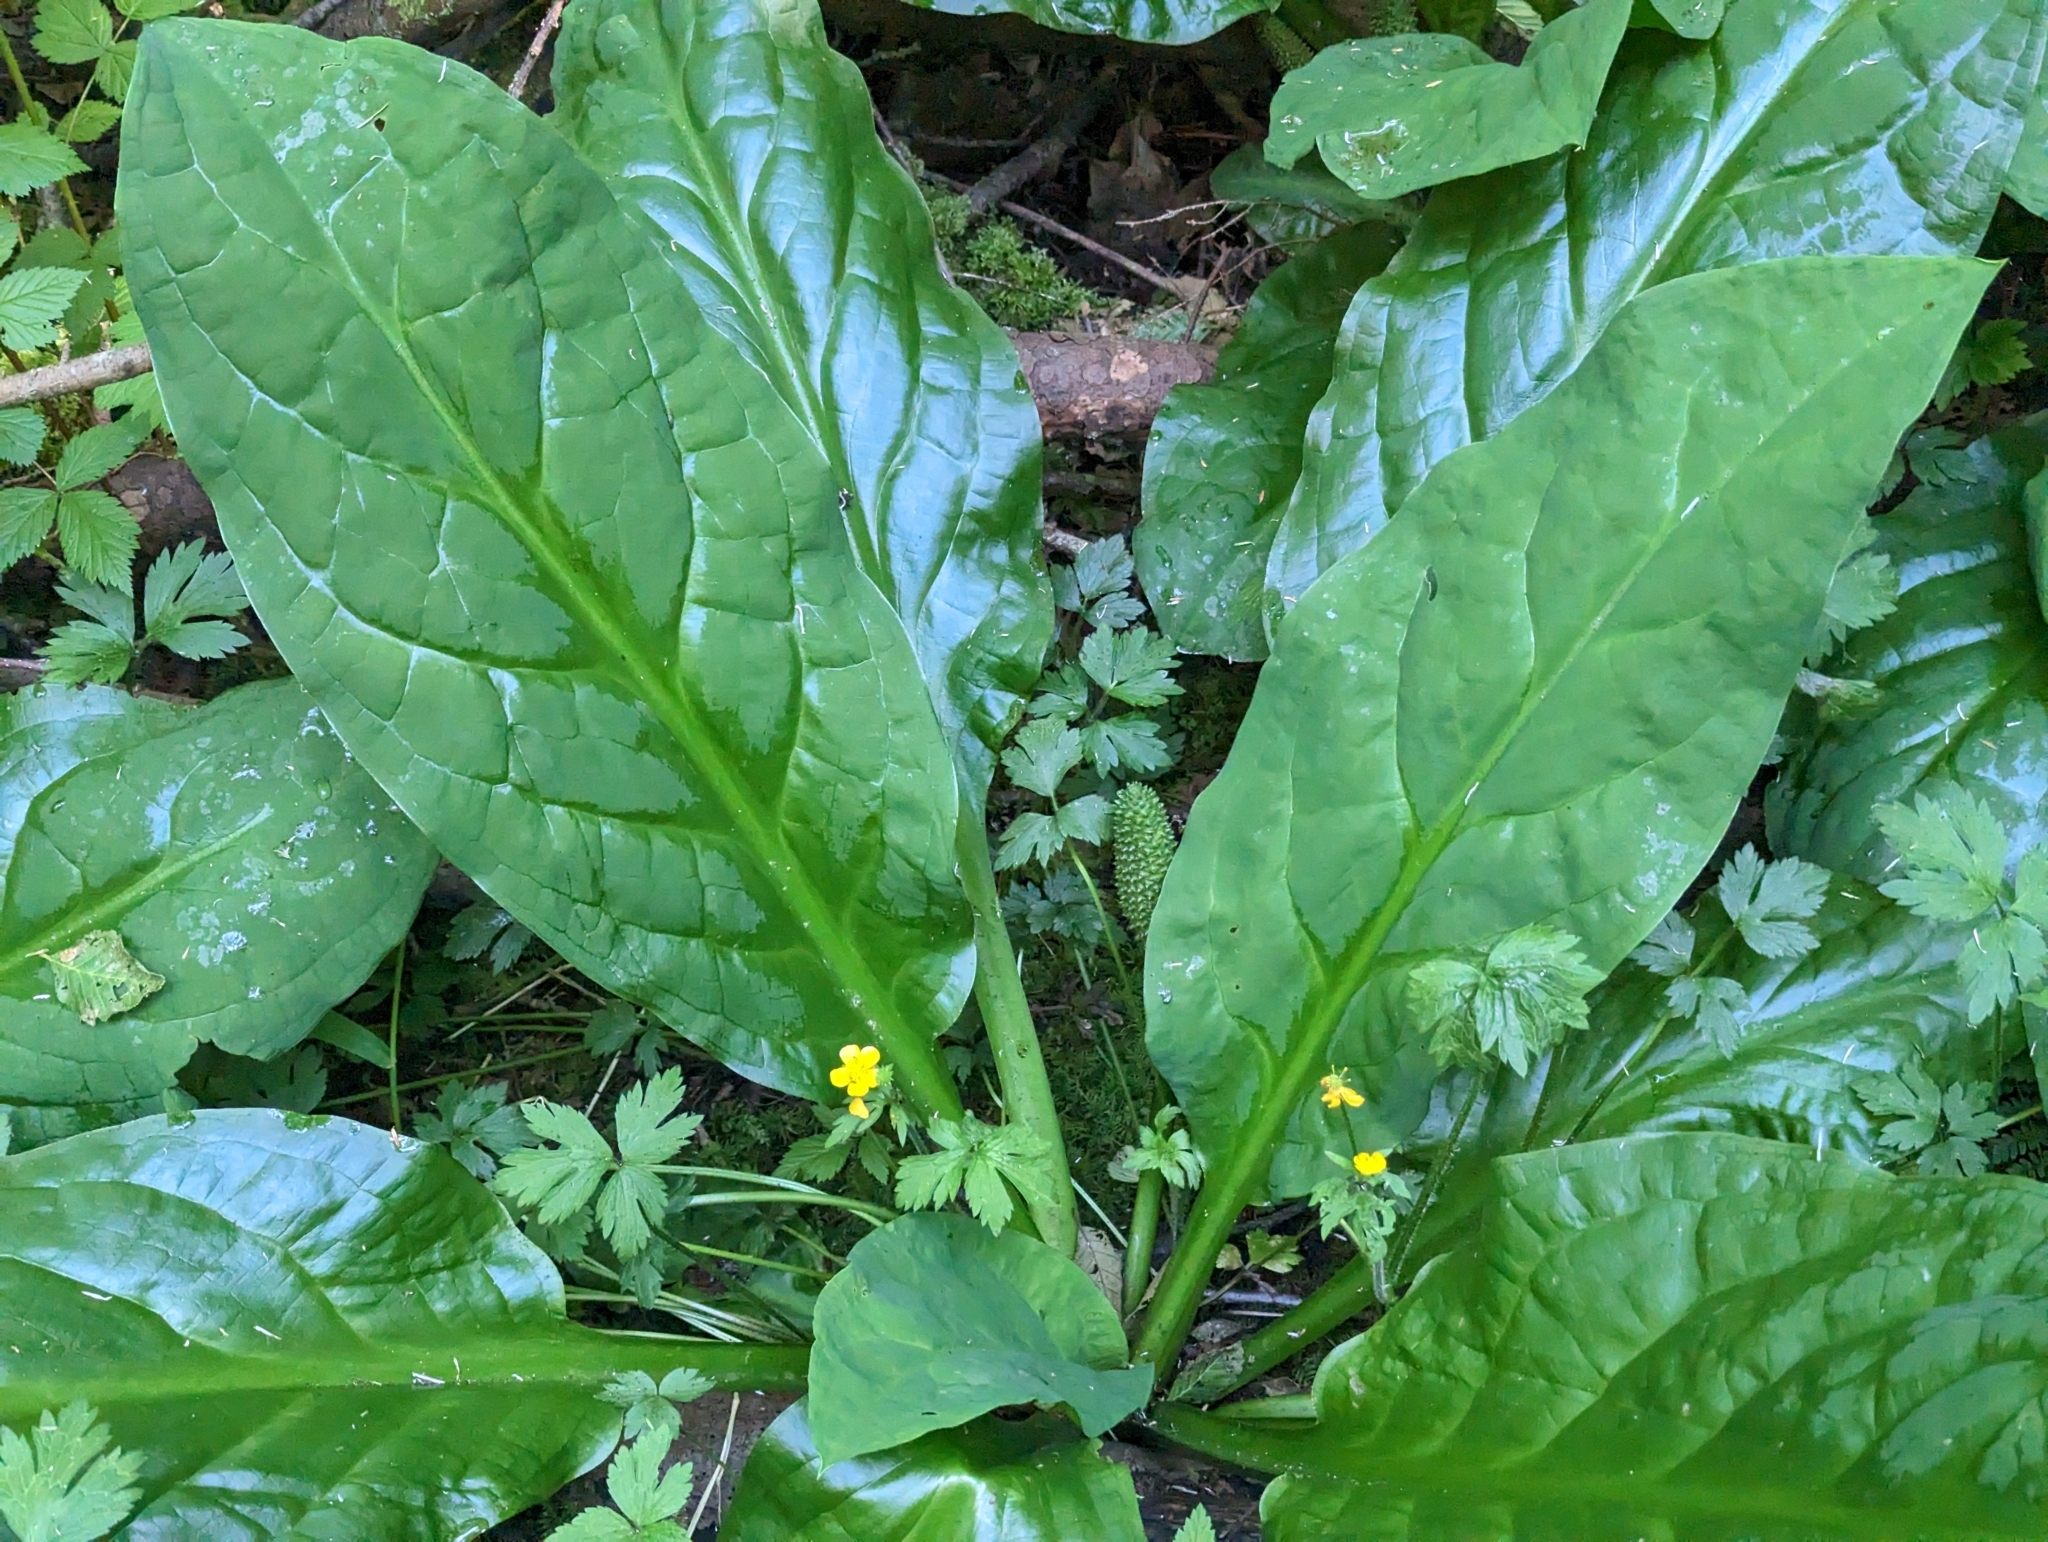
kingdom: Plantae
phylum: Tracheophyta
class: Liliopsida
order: Alismatales
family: Araceae
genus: Lysichiton
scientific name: Lysichiton americanus
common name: American skunk cabbage
